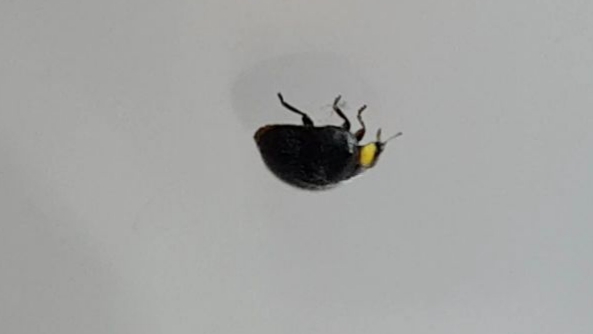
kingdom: Animalia
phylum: Arthropoda
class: Insecta
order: Coleoptera
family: Coccinellidae
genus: Scymnodes
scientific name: Scymnodes lividigaster
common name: Yellowshouldered lady beetle
